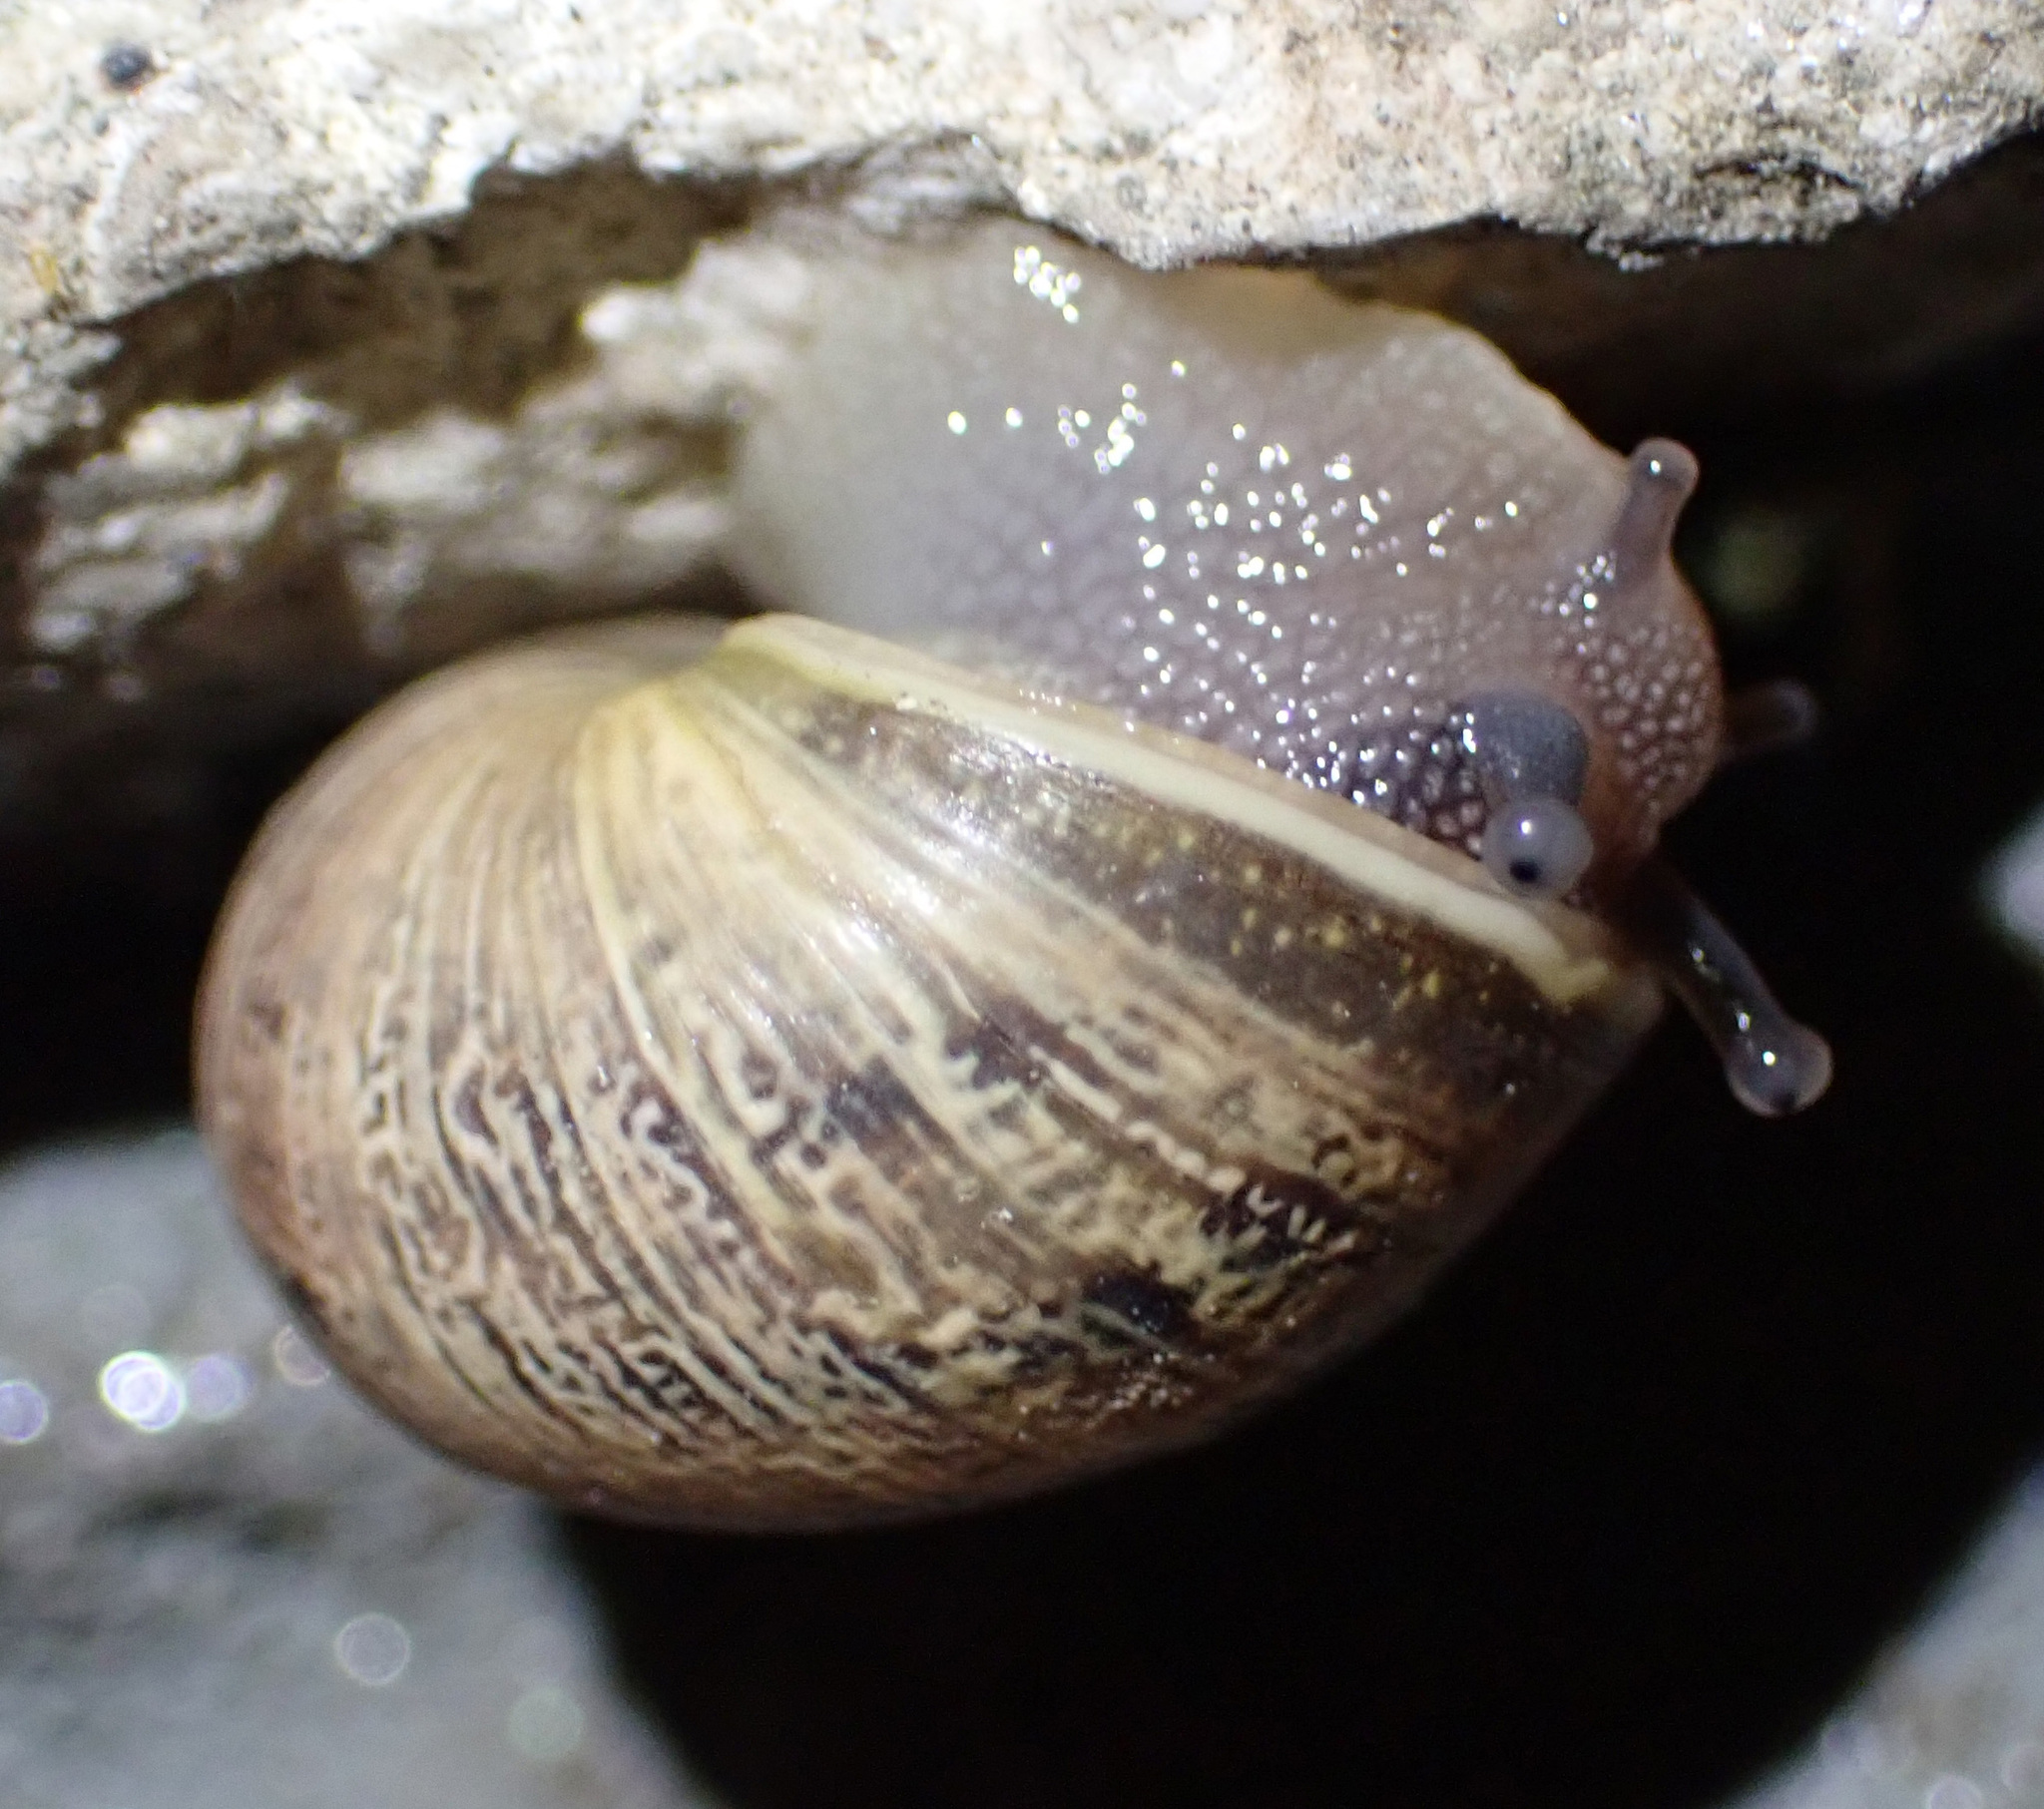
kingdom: Animalia
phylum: Mollusca
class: Gastropoda
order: Stylommatophora
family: Helicidae
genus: Cornu
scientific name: Cornu aspersum
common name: Brown garden snail
